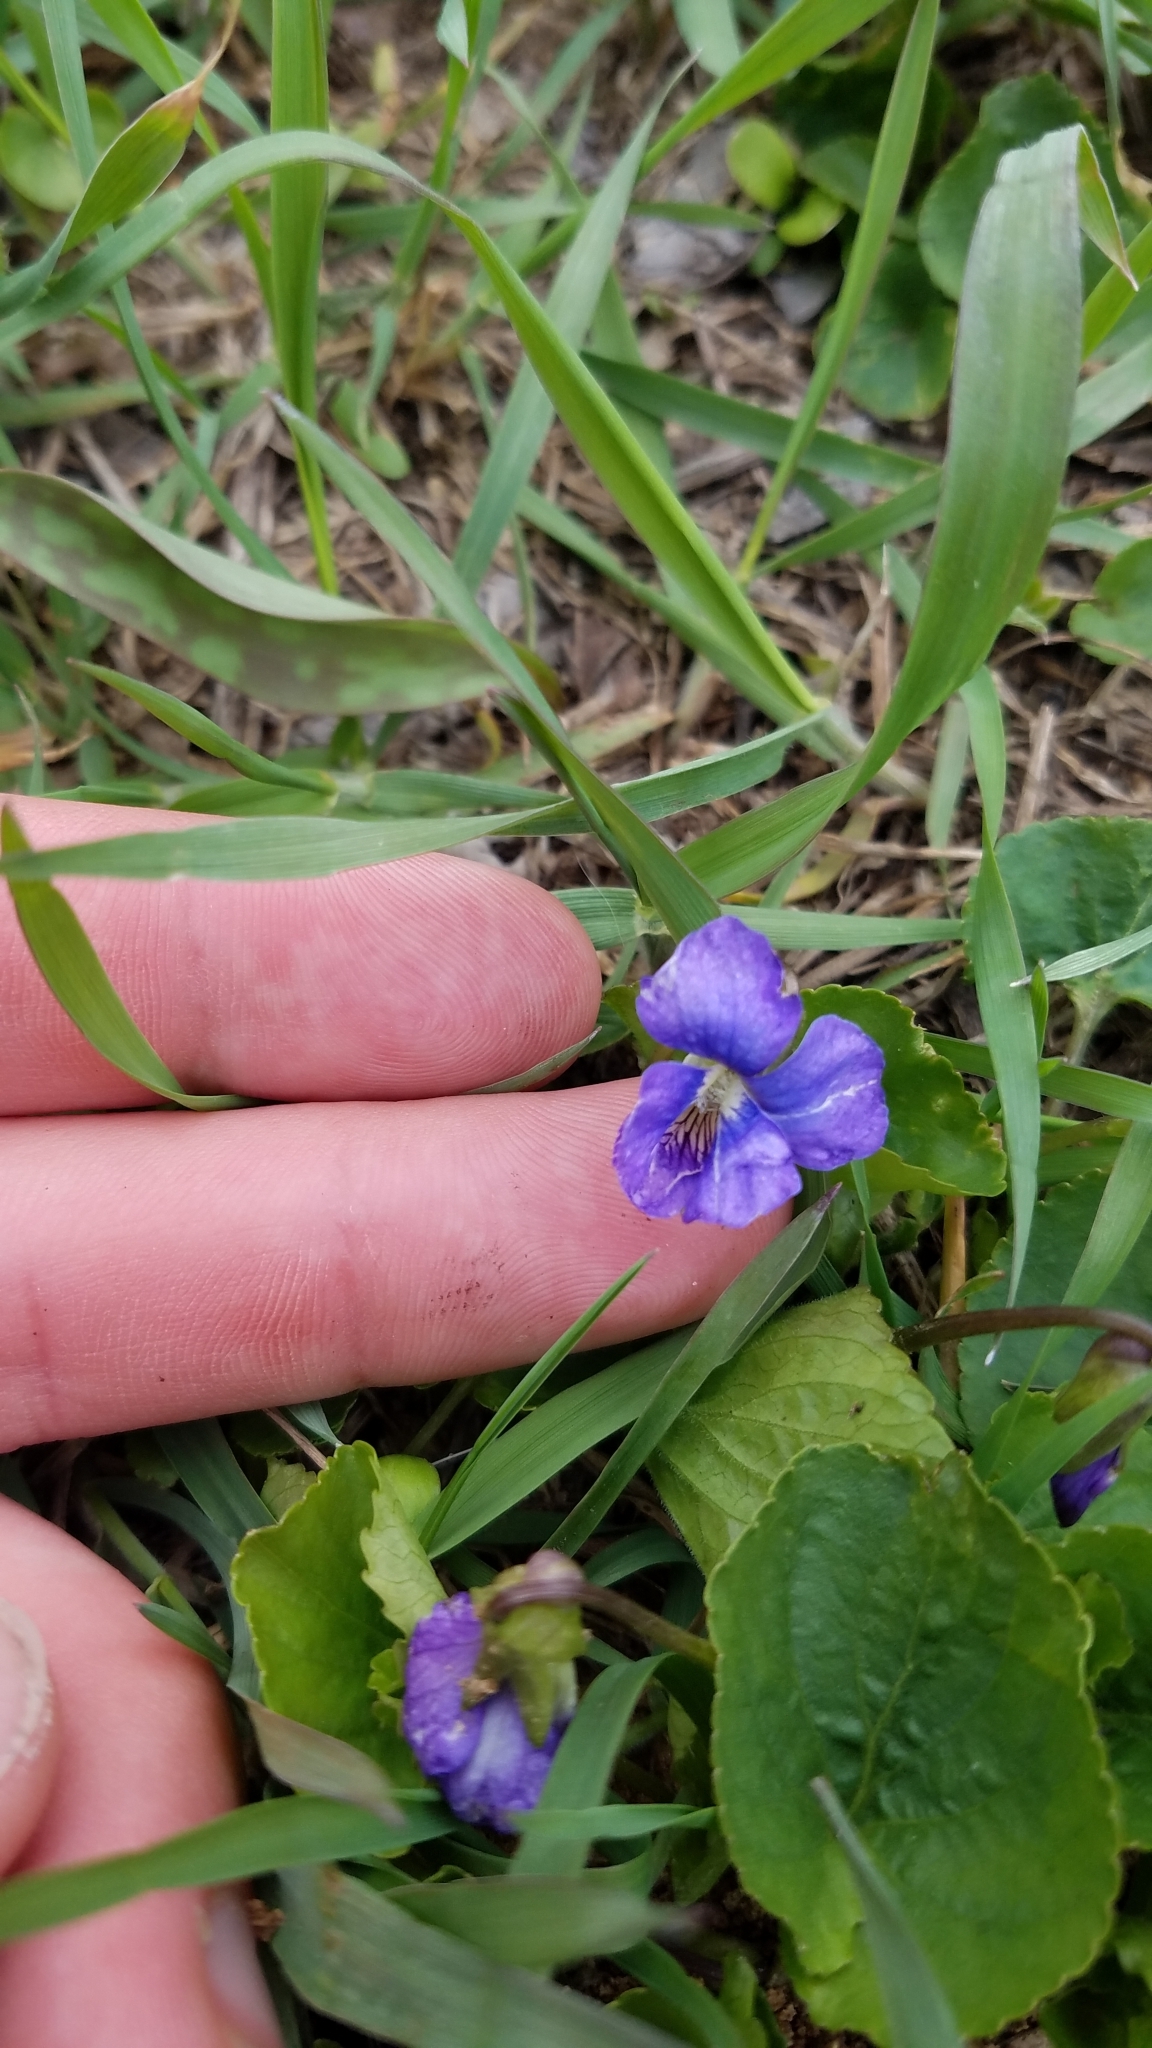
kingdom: Plantae
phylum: Tracheophyta
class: Magnoliopsida
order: Malpighiales
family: Violaceae
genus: Viola
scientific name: Viola sororia
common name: Dooryard violet
